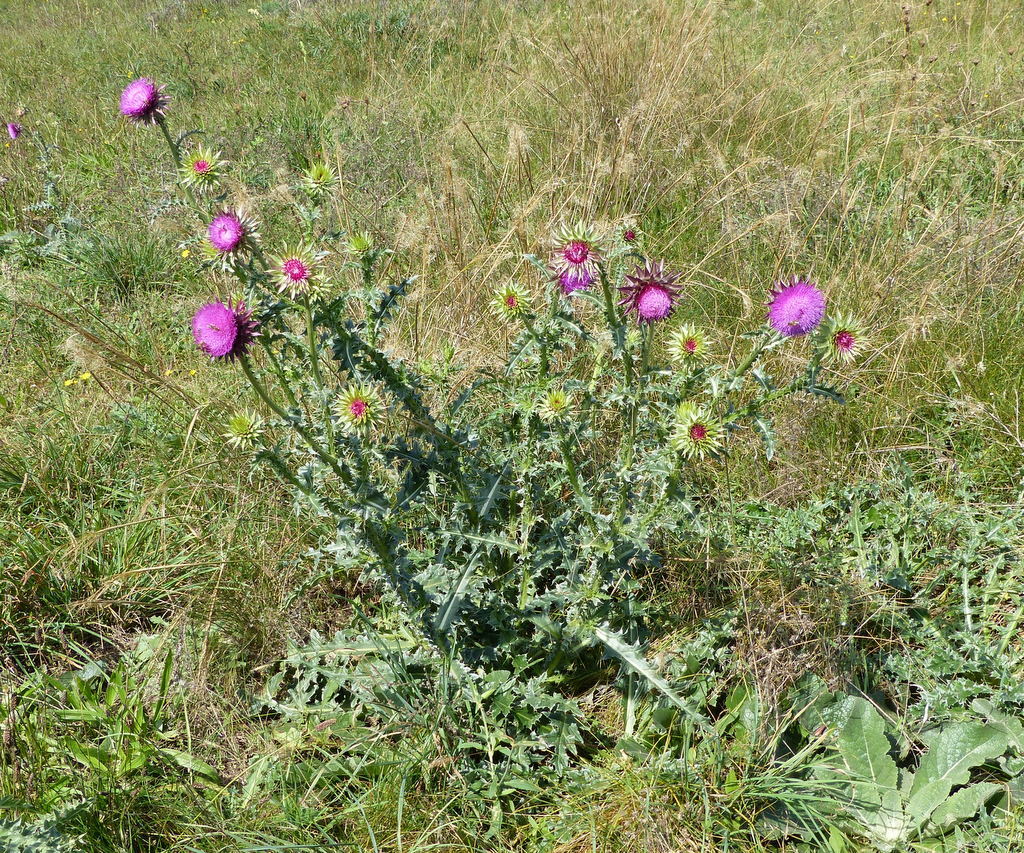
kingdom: Plantae
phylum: Tracheophyta
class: Magnoliopsida
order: Asterales
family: Asteraceae
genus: Carduus
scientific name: Carduus nutans
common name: Musk thistle
